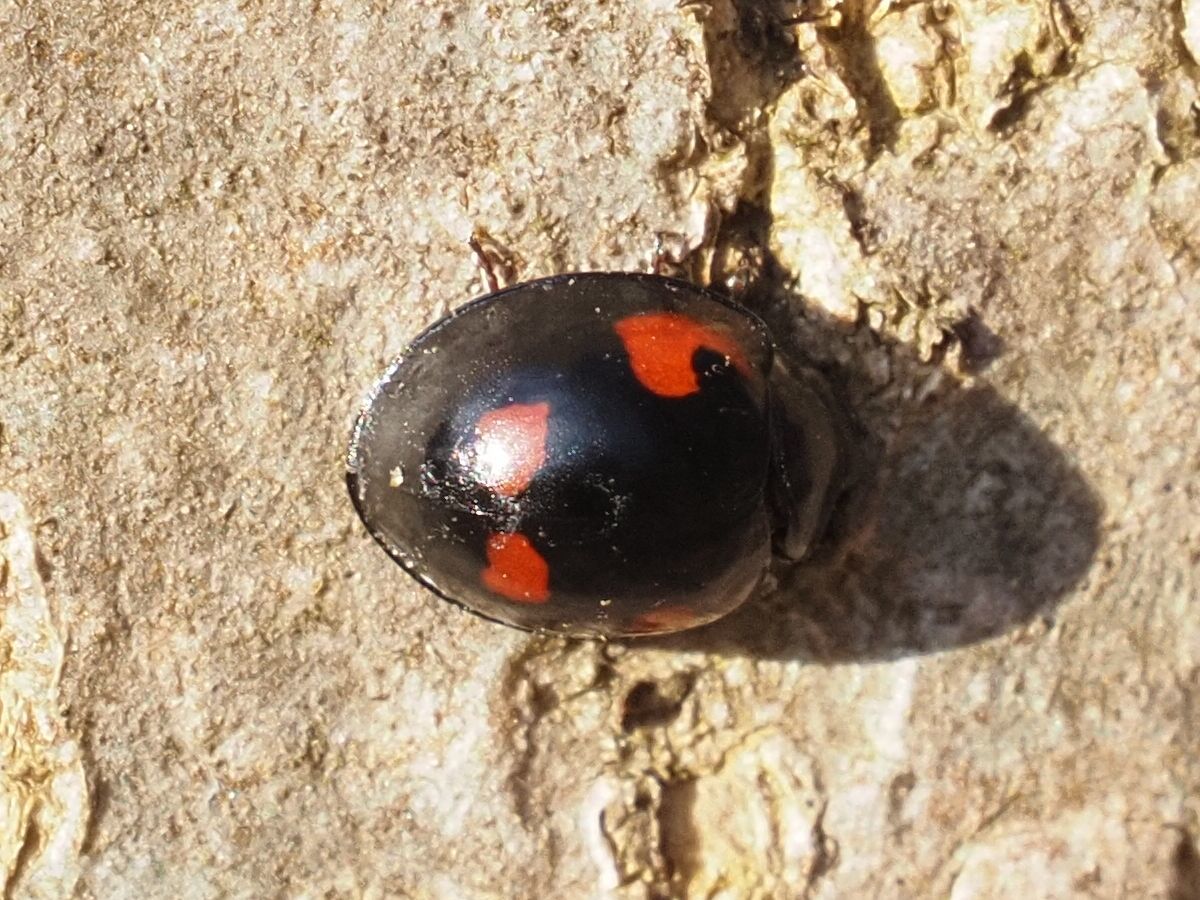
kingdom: Animalia
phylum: Arthropoda
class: Insecta
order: Coleoptera
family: Coccinellidae
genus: Brumus
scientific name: Brumus quadripustulatus
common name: Ladybird beetle
